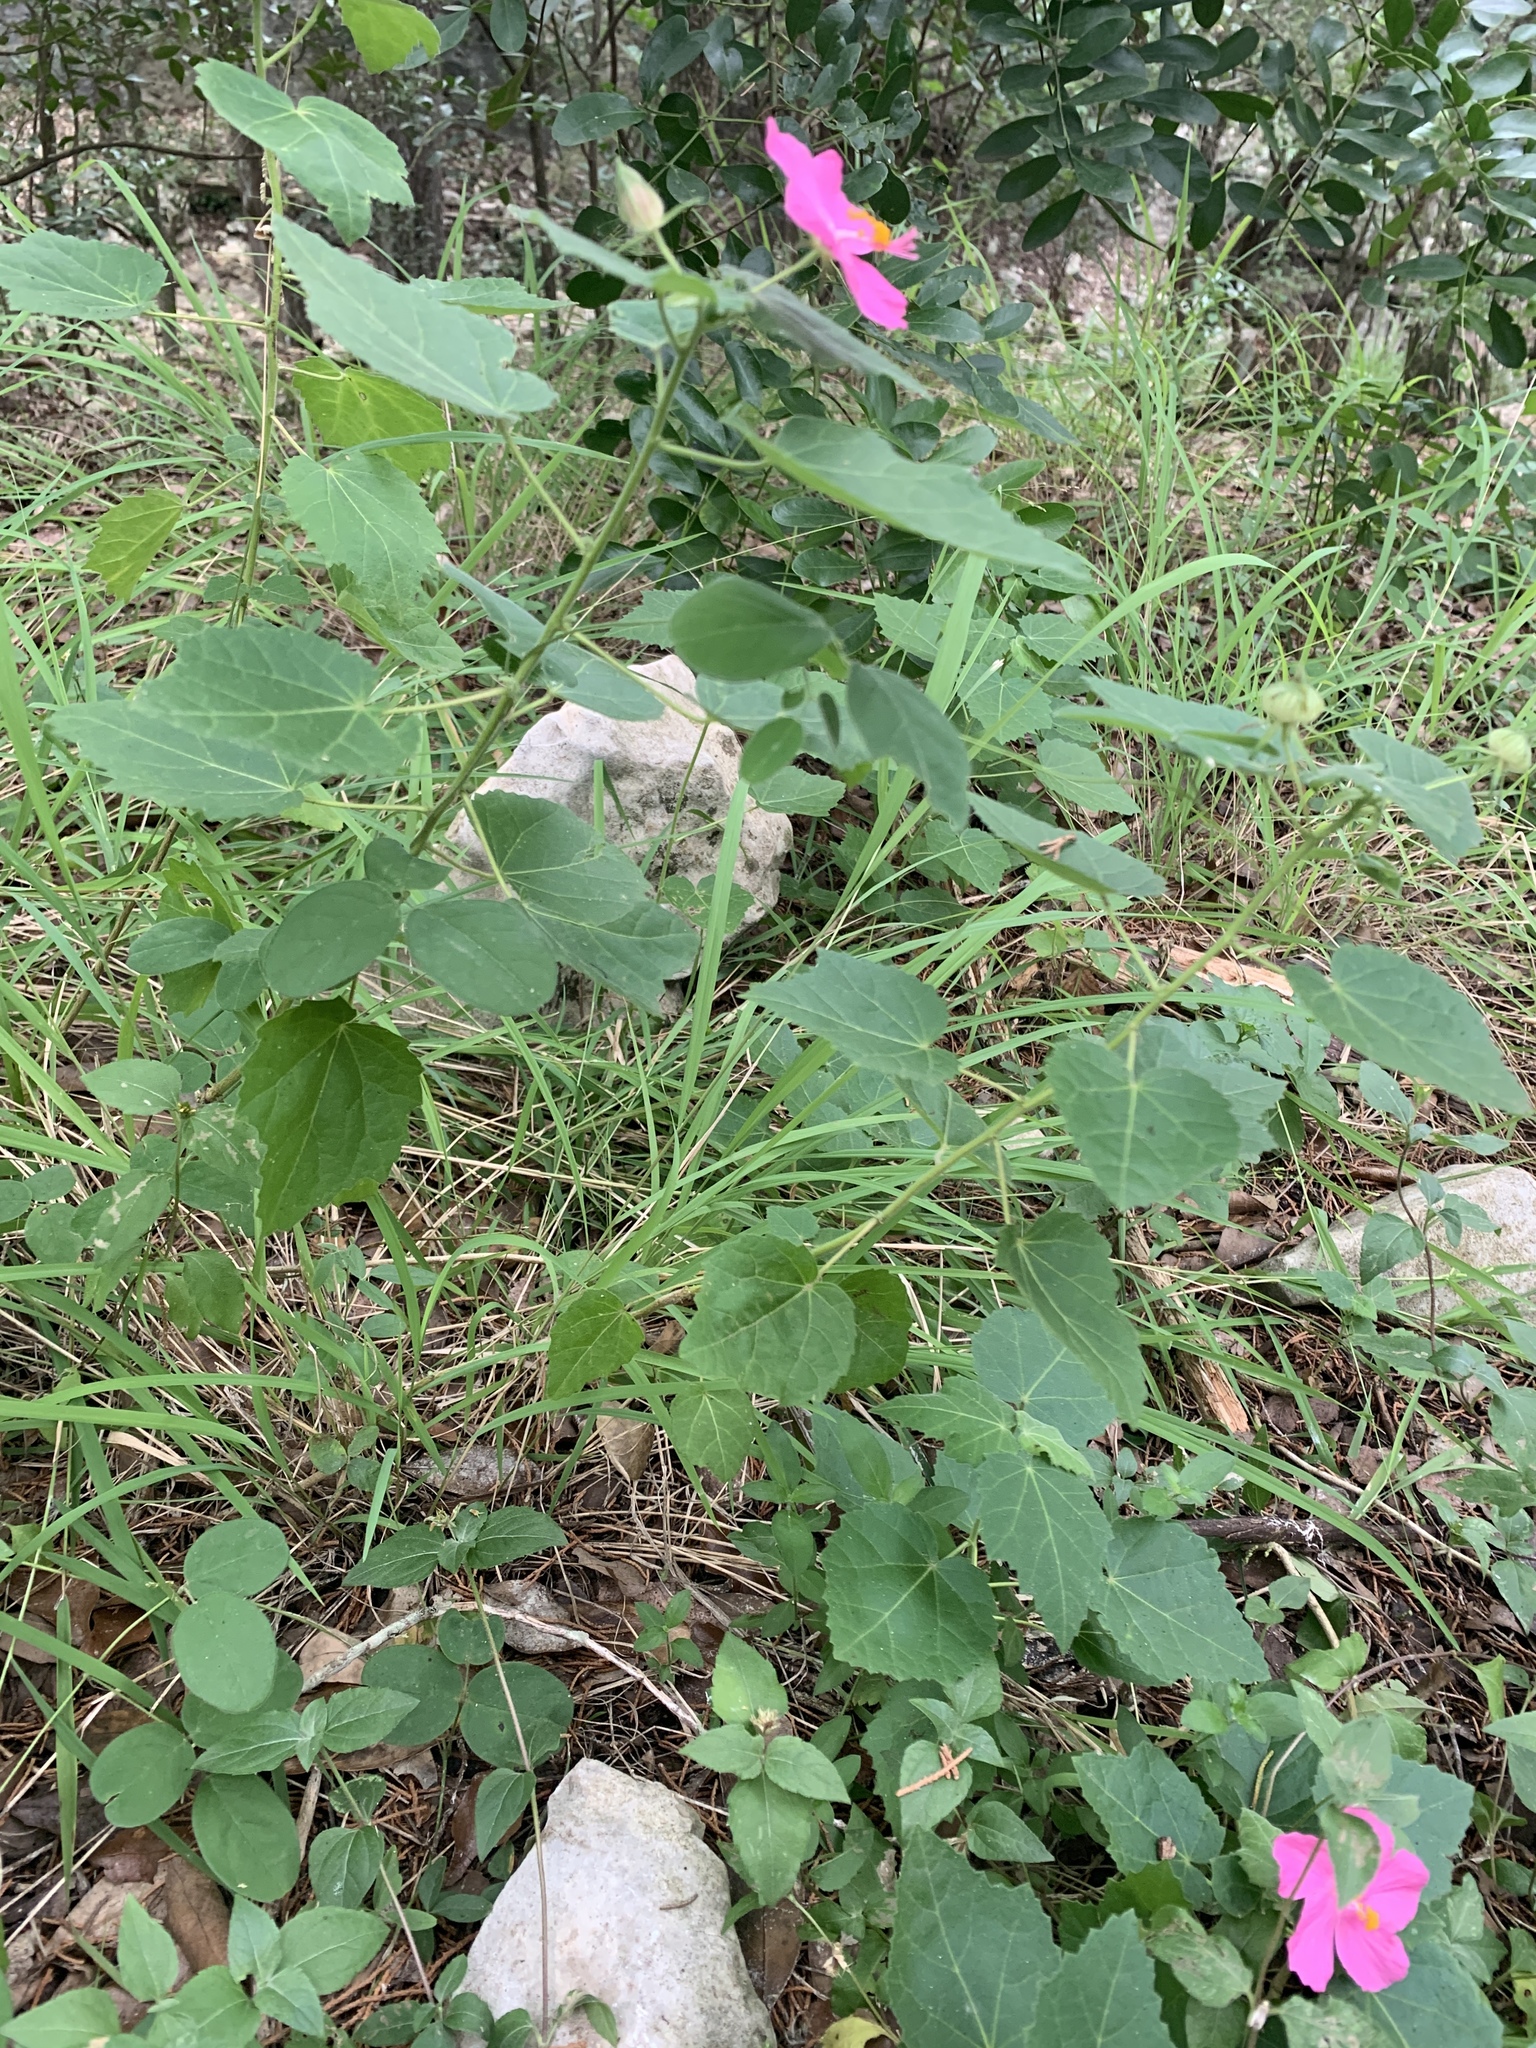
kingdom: Plantae
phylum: Tracheophyta
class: Magnoliopsida
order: Malvales
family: Malvaceae
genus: Pavonia
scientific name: Pavonia lasiopetala
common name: Texas swamp-mallow
